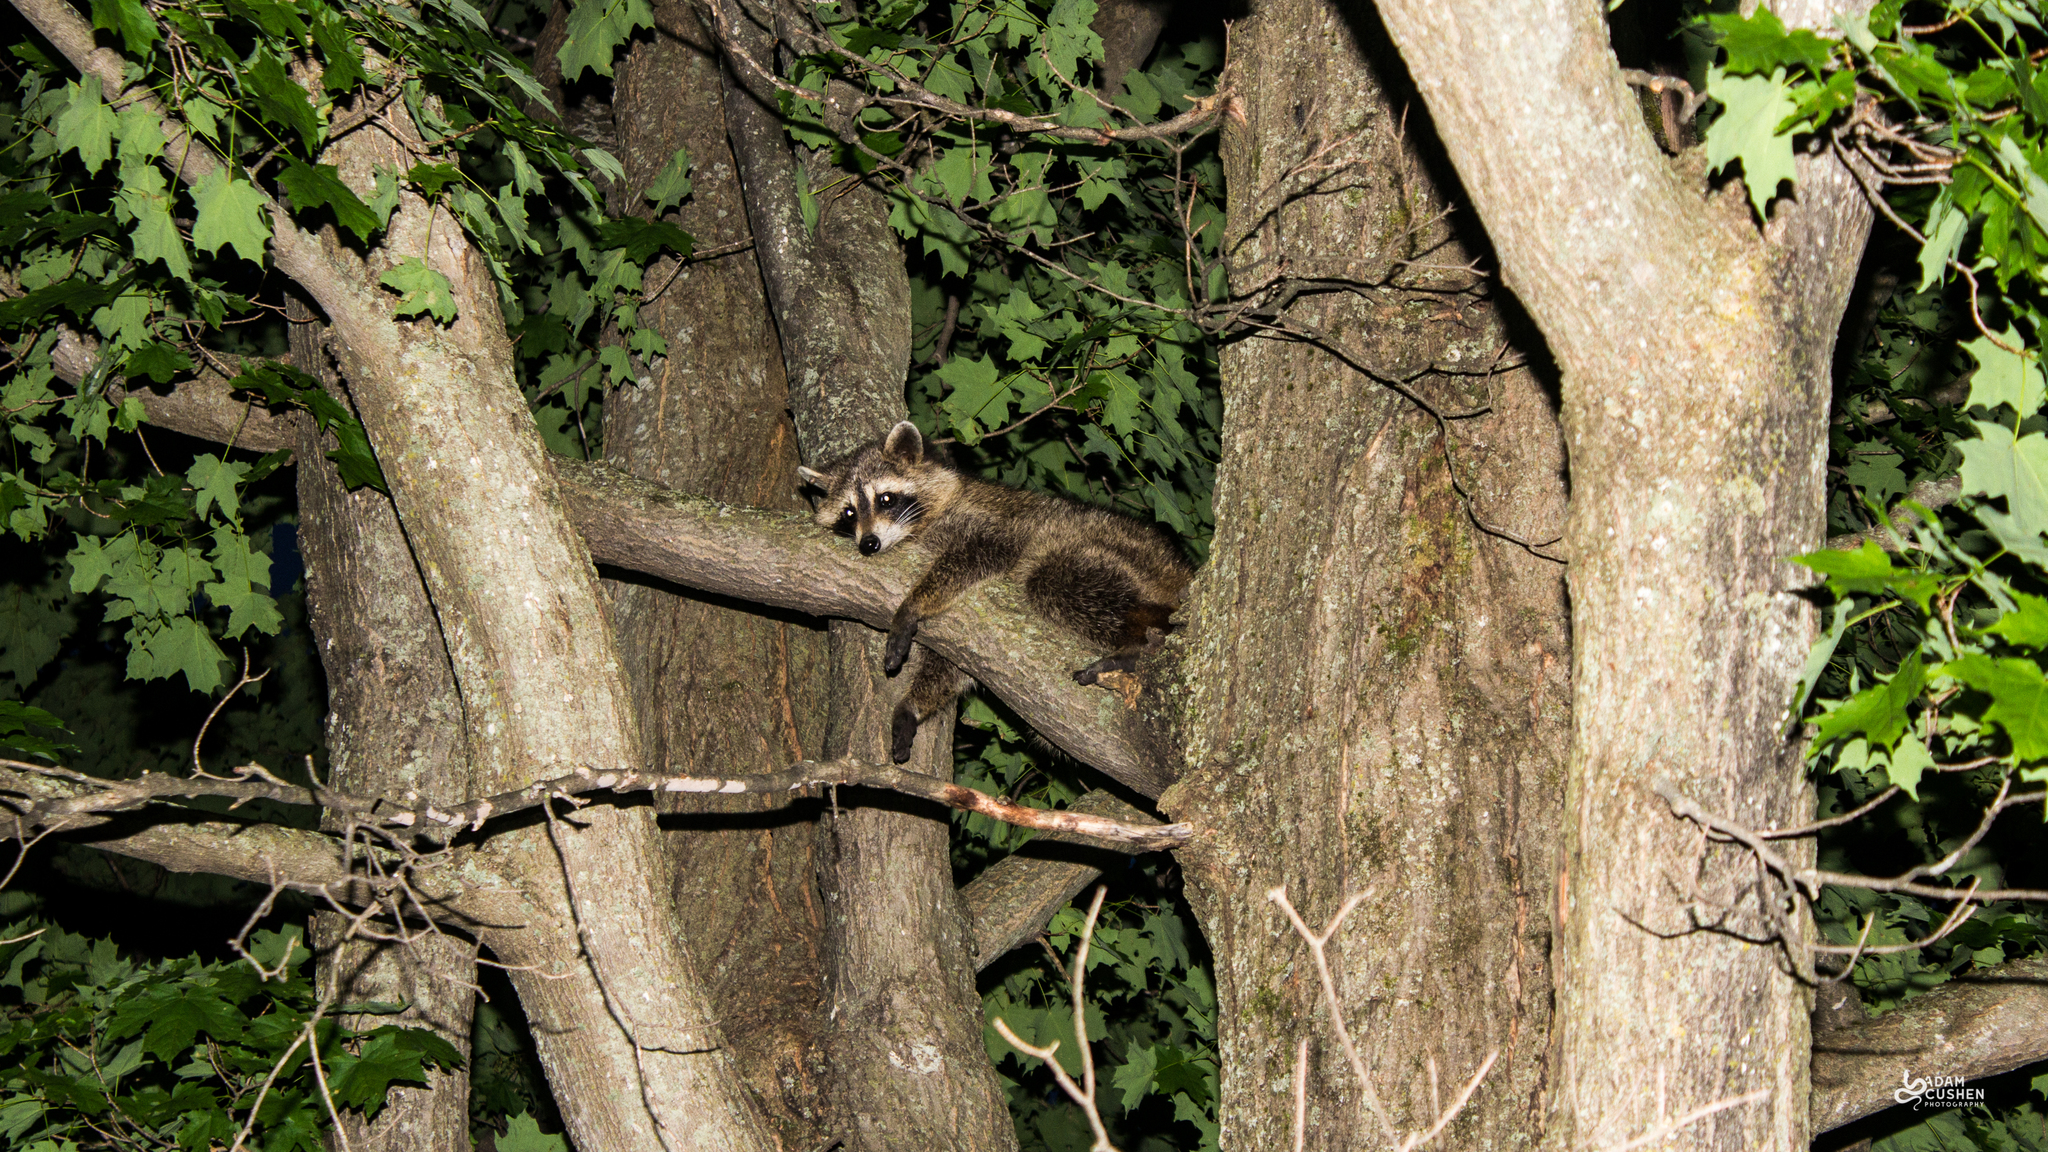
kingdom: Animalia
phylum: Chordata
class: Mammalia
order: Carnivora
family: Procyonidae
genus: Procyon
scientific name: Procyon lotor
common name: Raccoon
